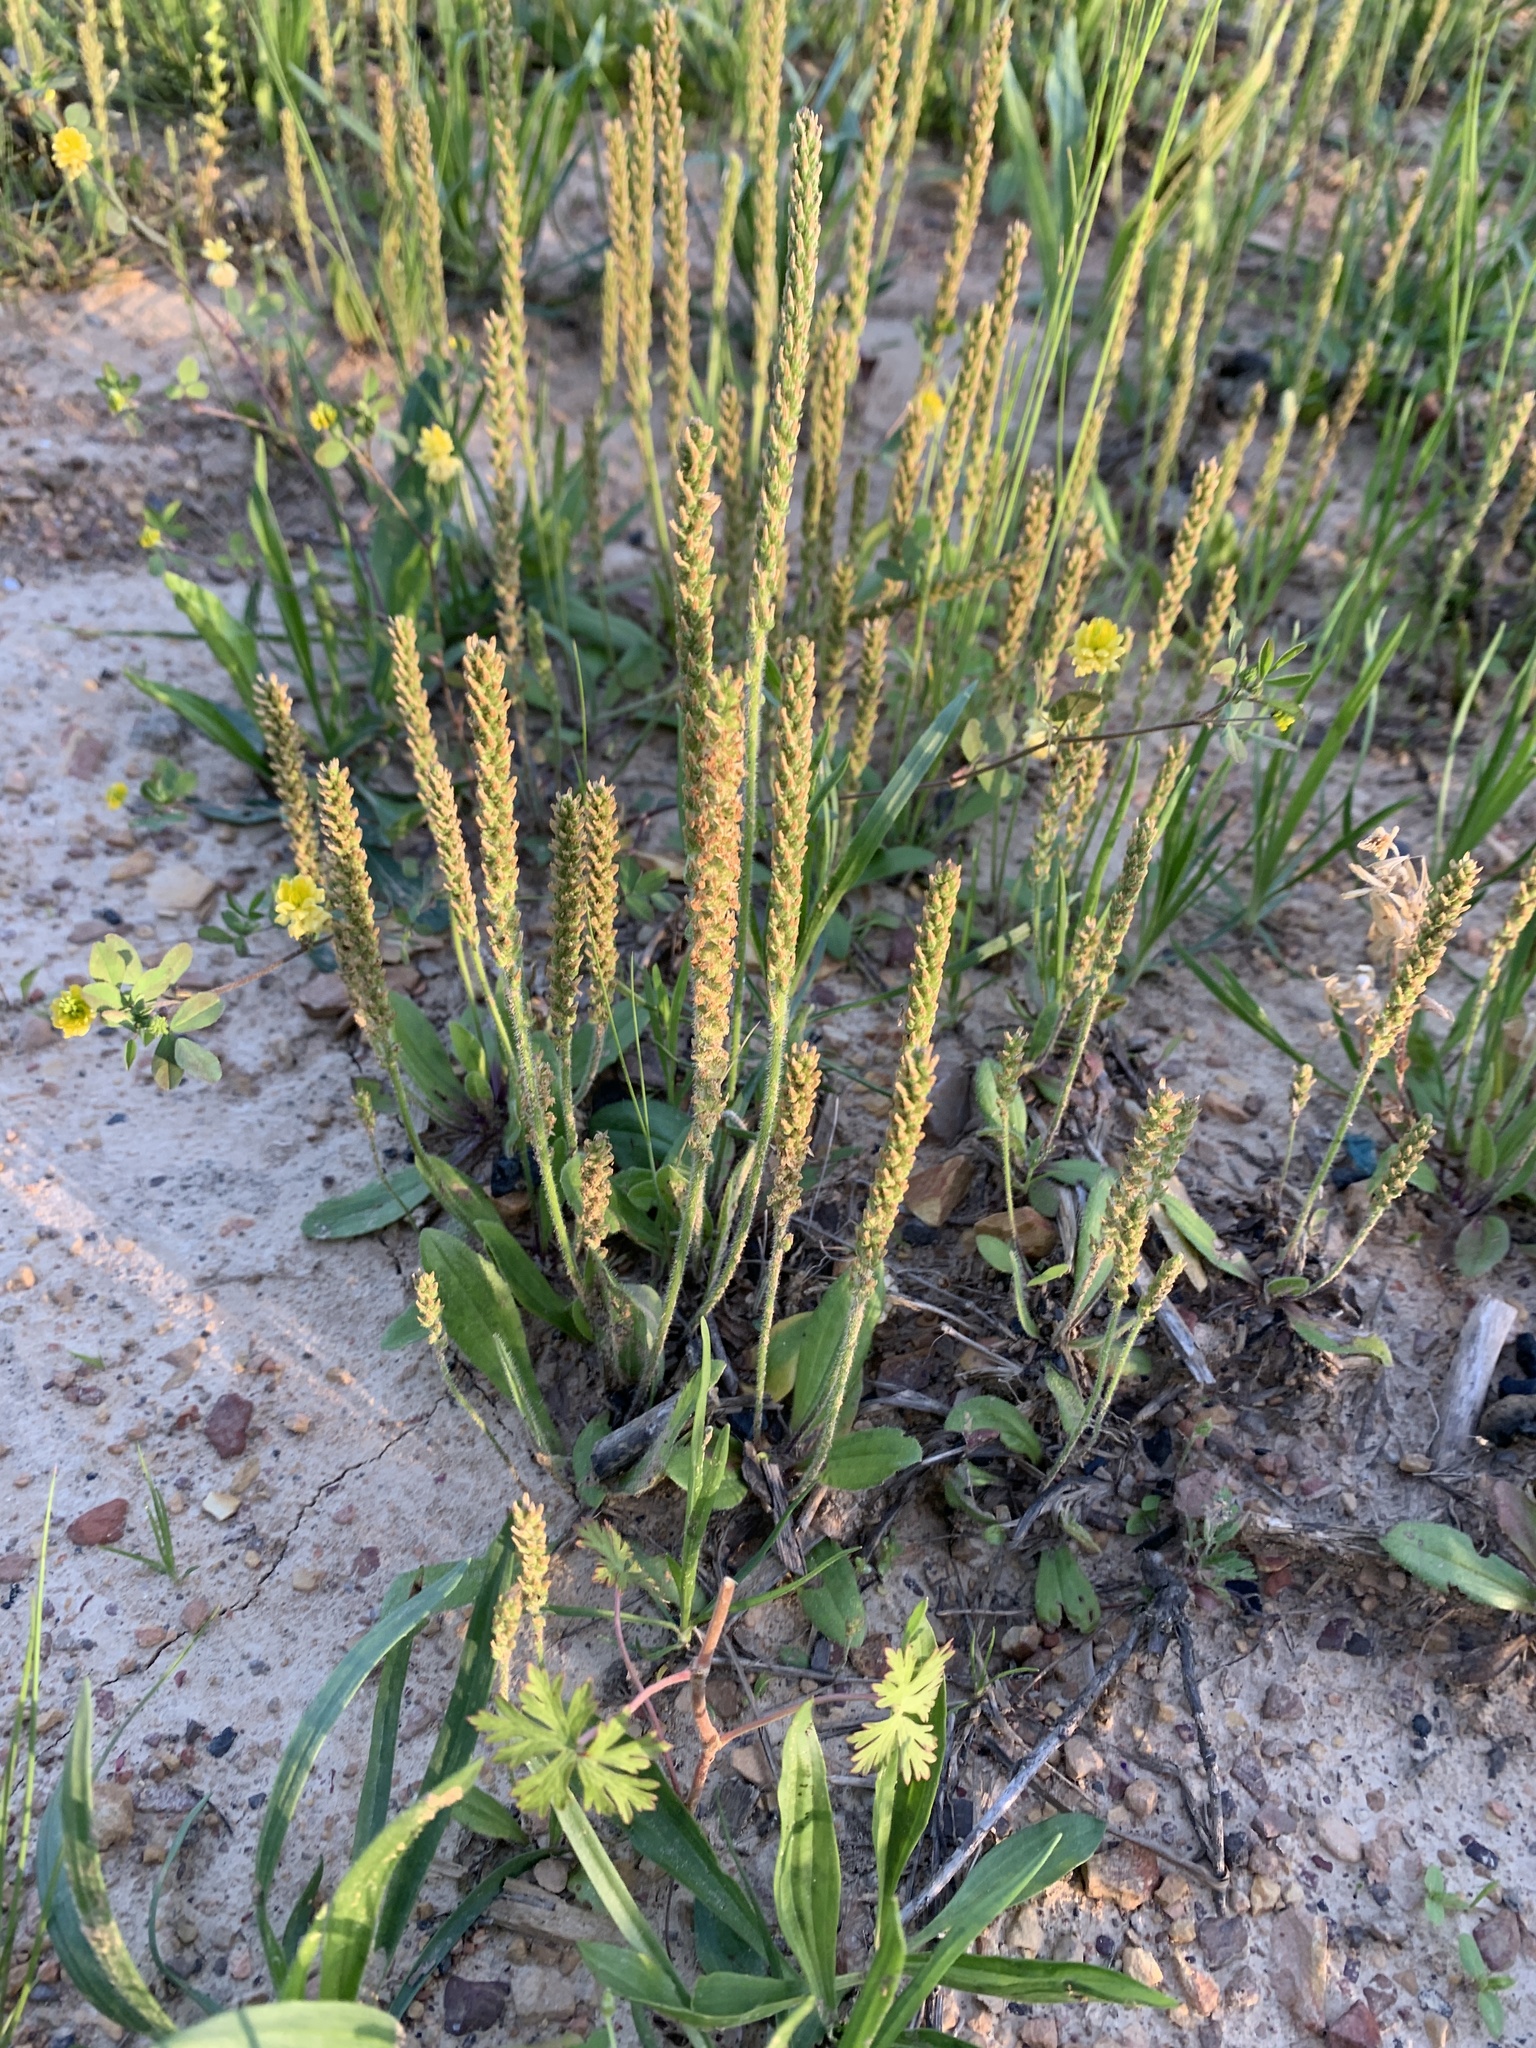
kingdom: Plantae
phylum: Tracheophyta
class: Magnoliopsida
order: Lamiales
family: Plantaginaceae
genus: Plantago
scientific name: Plantago virginica
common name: Hoary plantain
